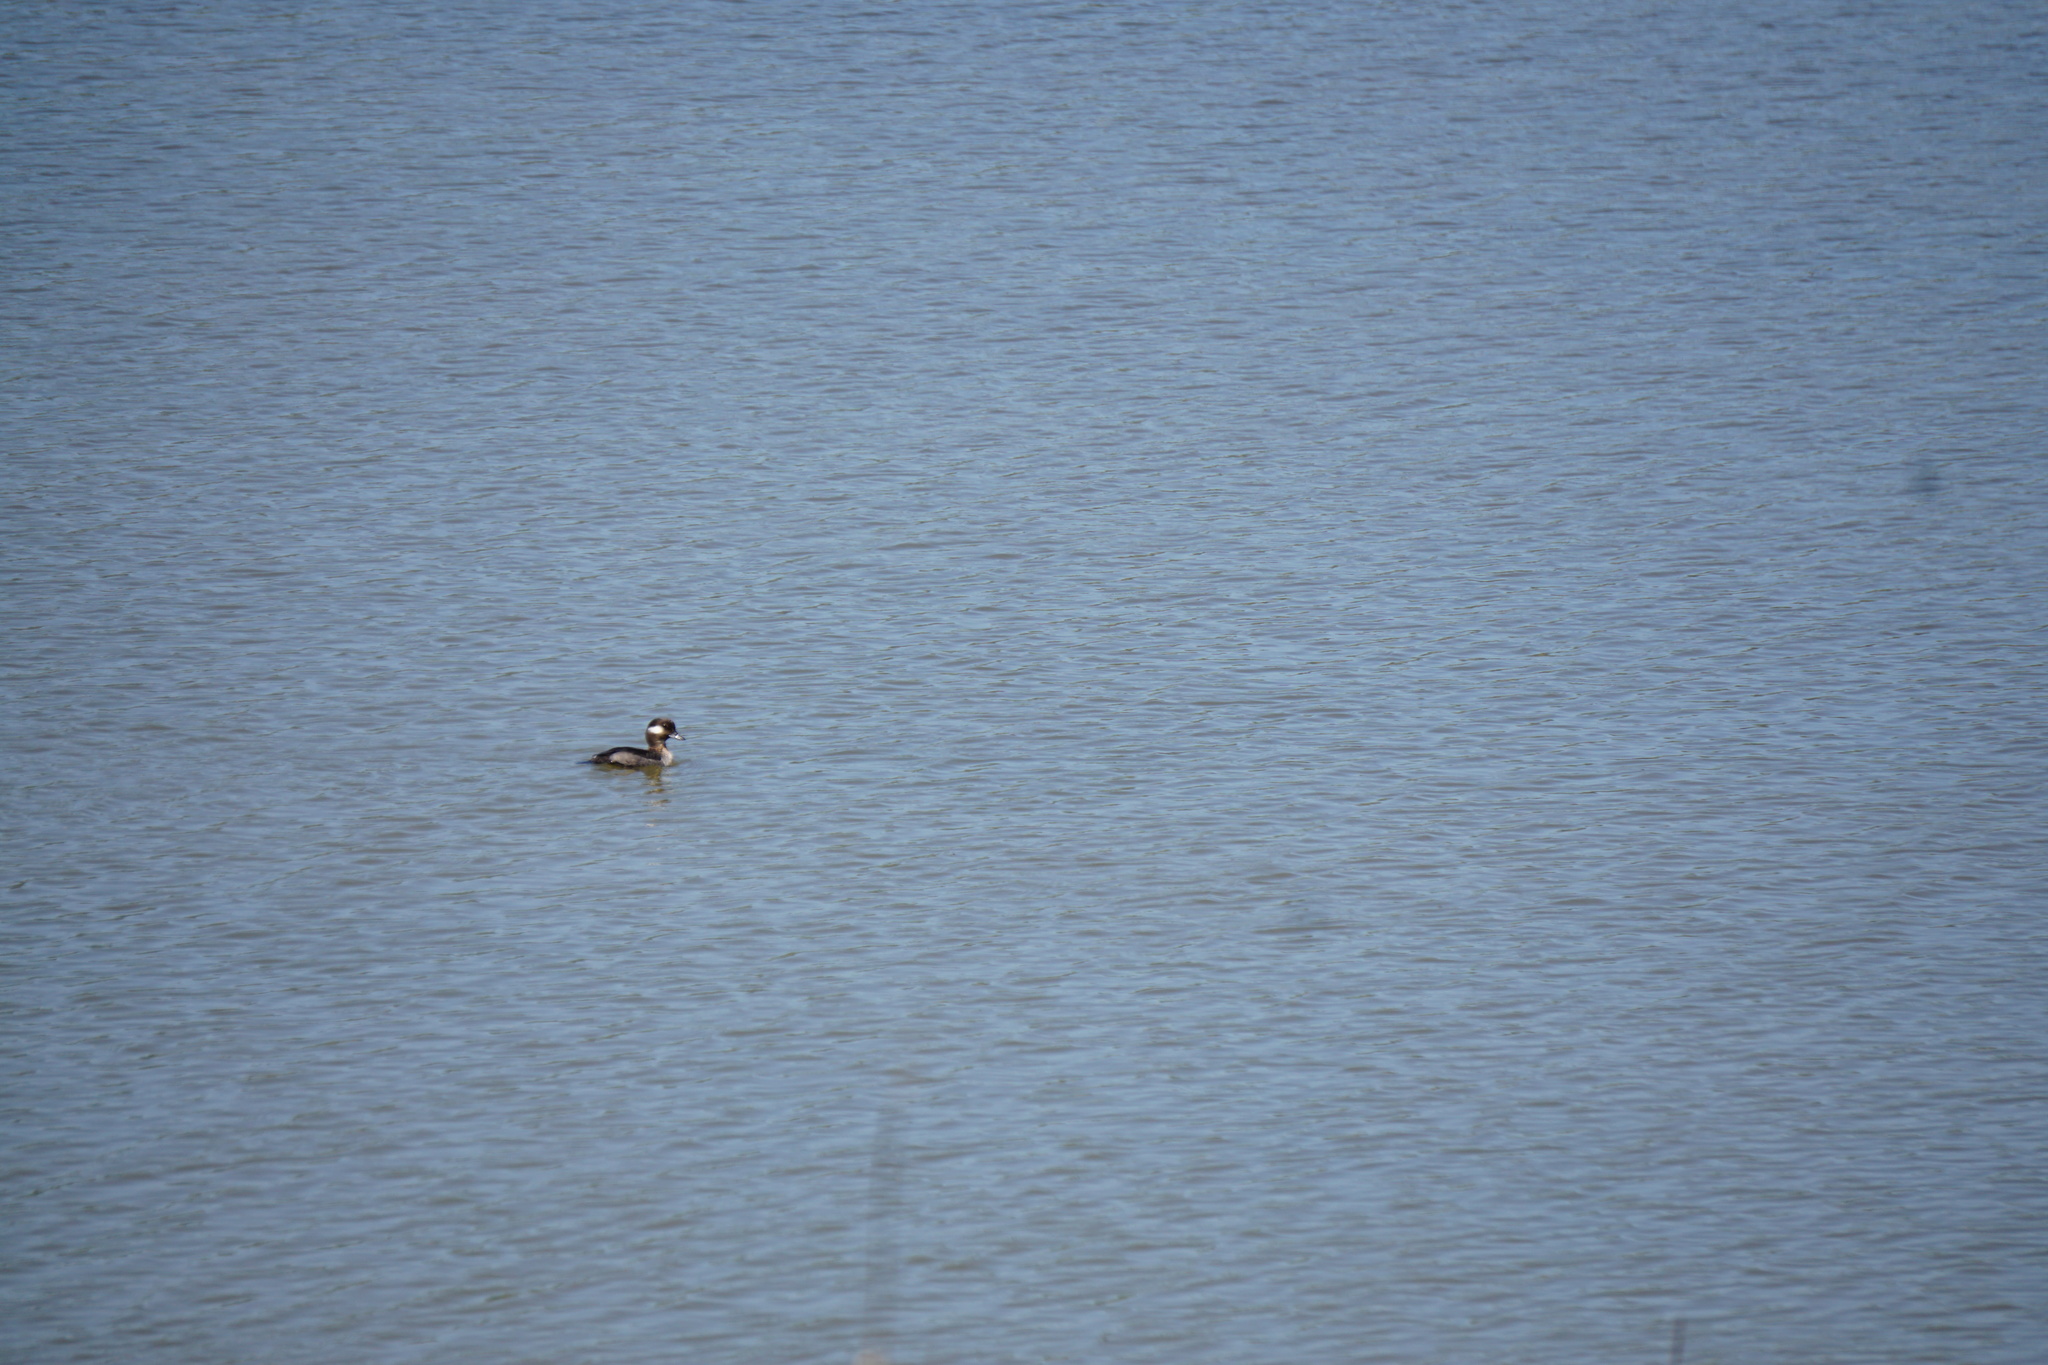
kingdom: Animalia
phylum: Chordata
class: Aves
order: Anseriformes
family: Anatidae
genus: Bucephala
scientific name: Bucephala albeola
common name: Bufflehead
